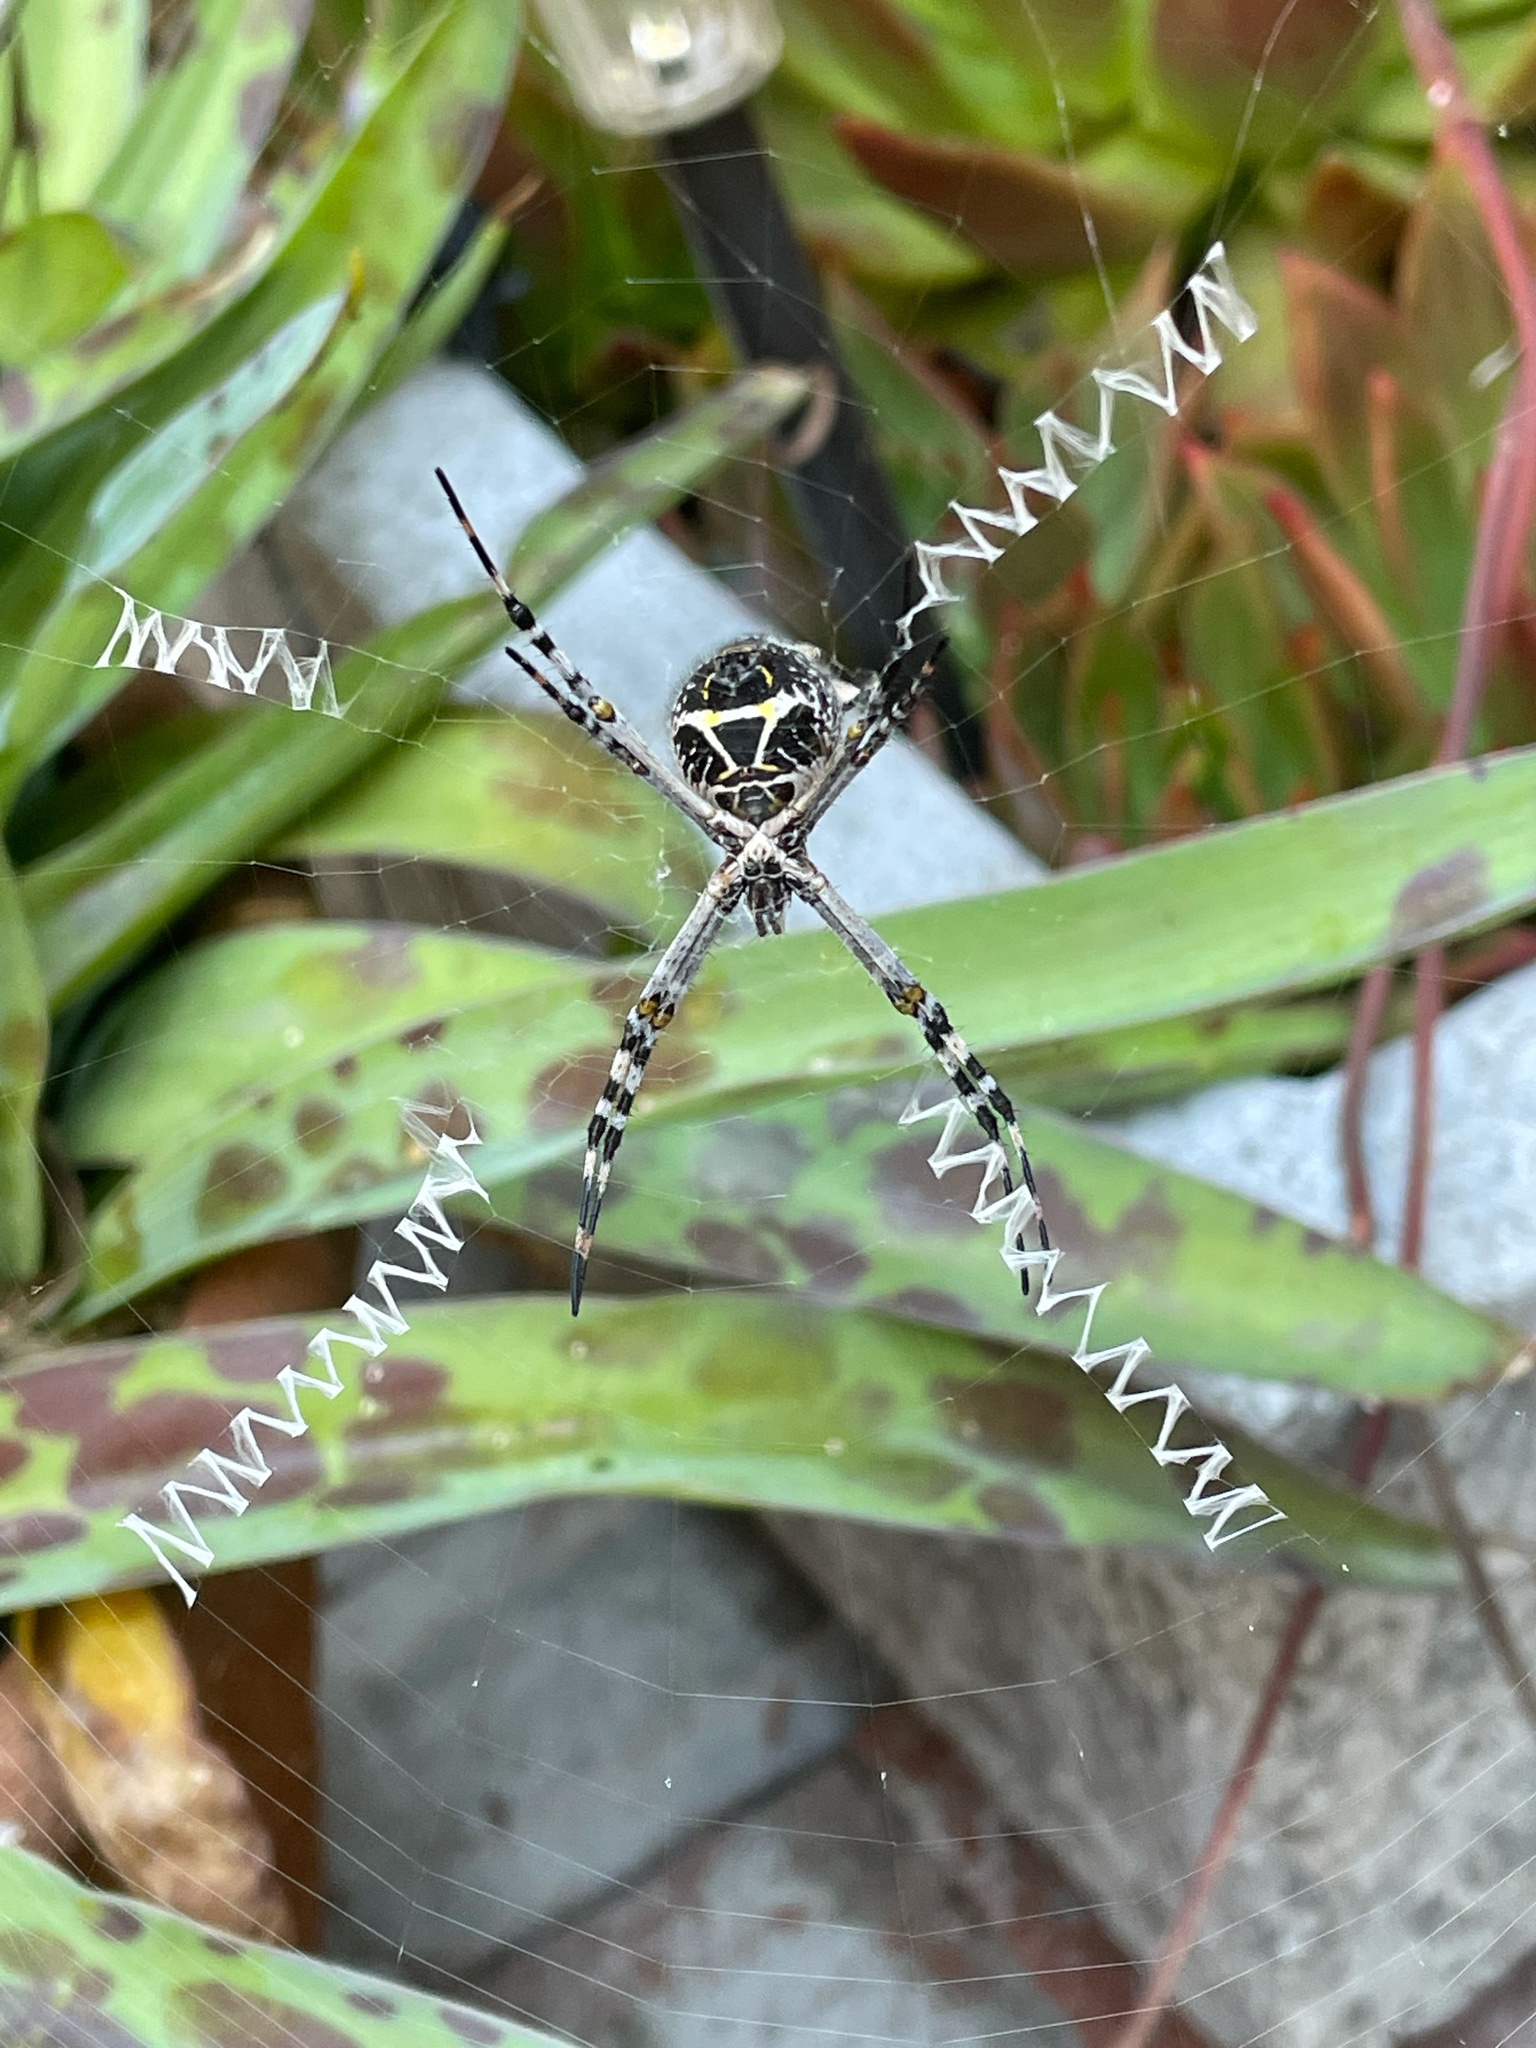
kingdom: Animalia
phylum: Arthropoda
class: Arachnida
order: Araneae
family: Araneidae
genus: Argiope
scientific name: Argiope argentata
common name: Orb weavers
